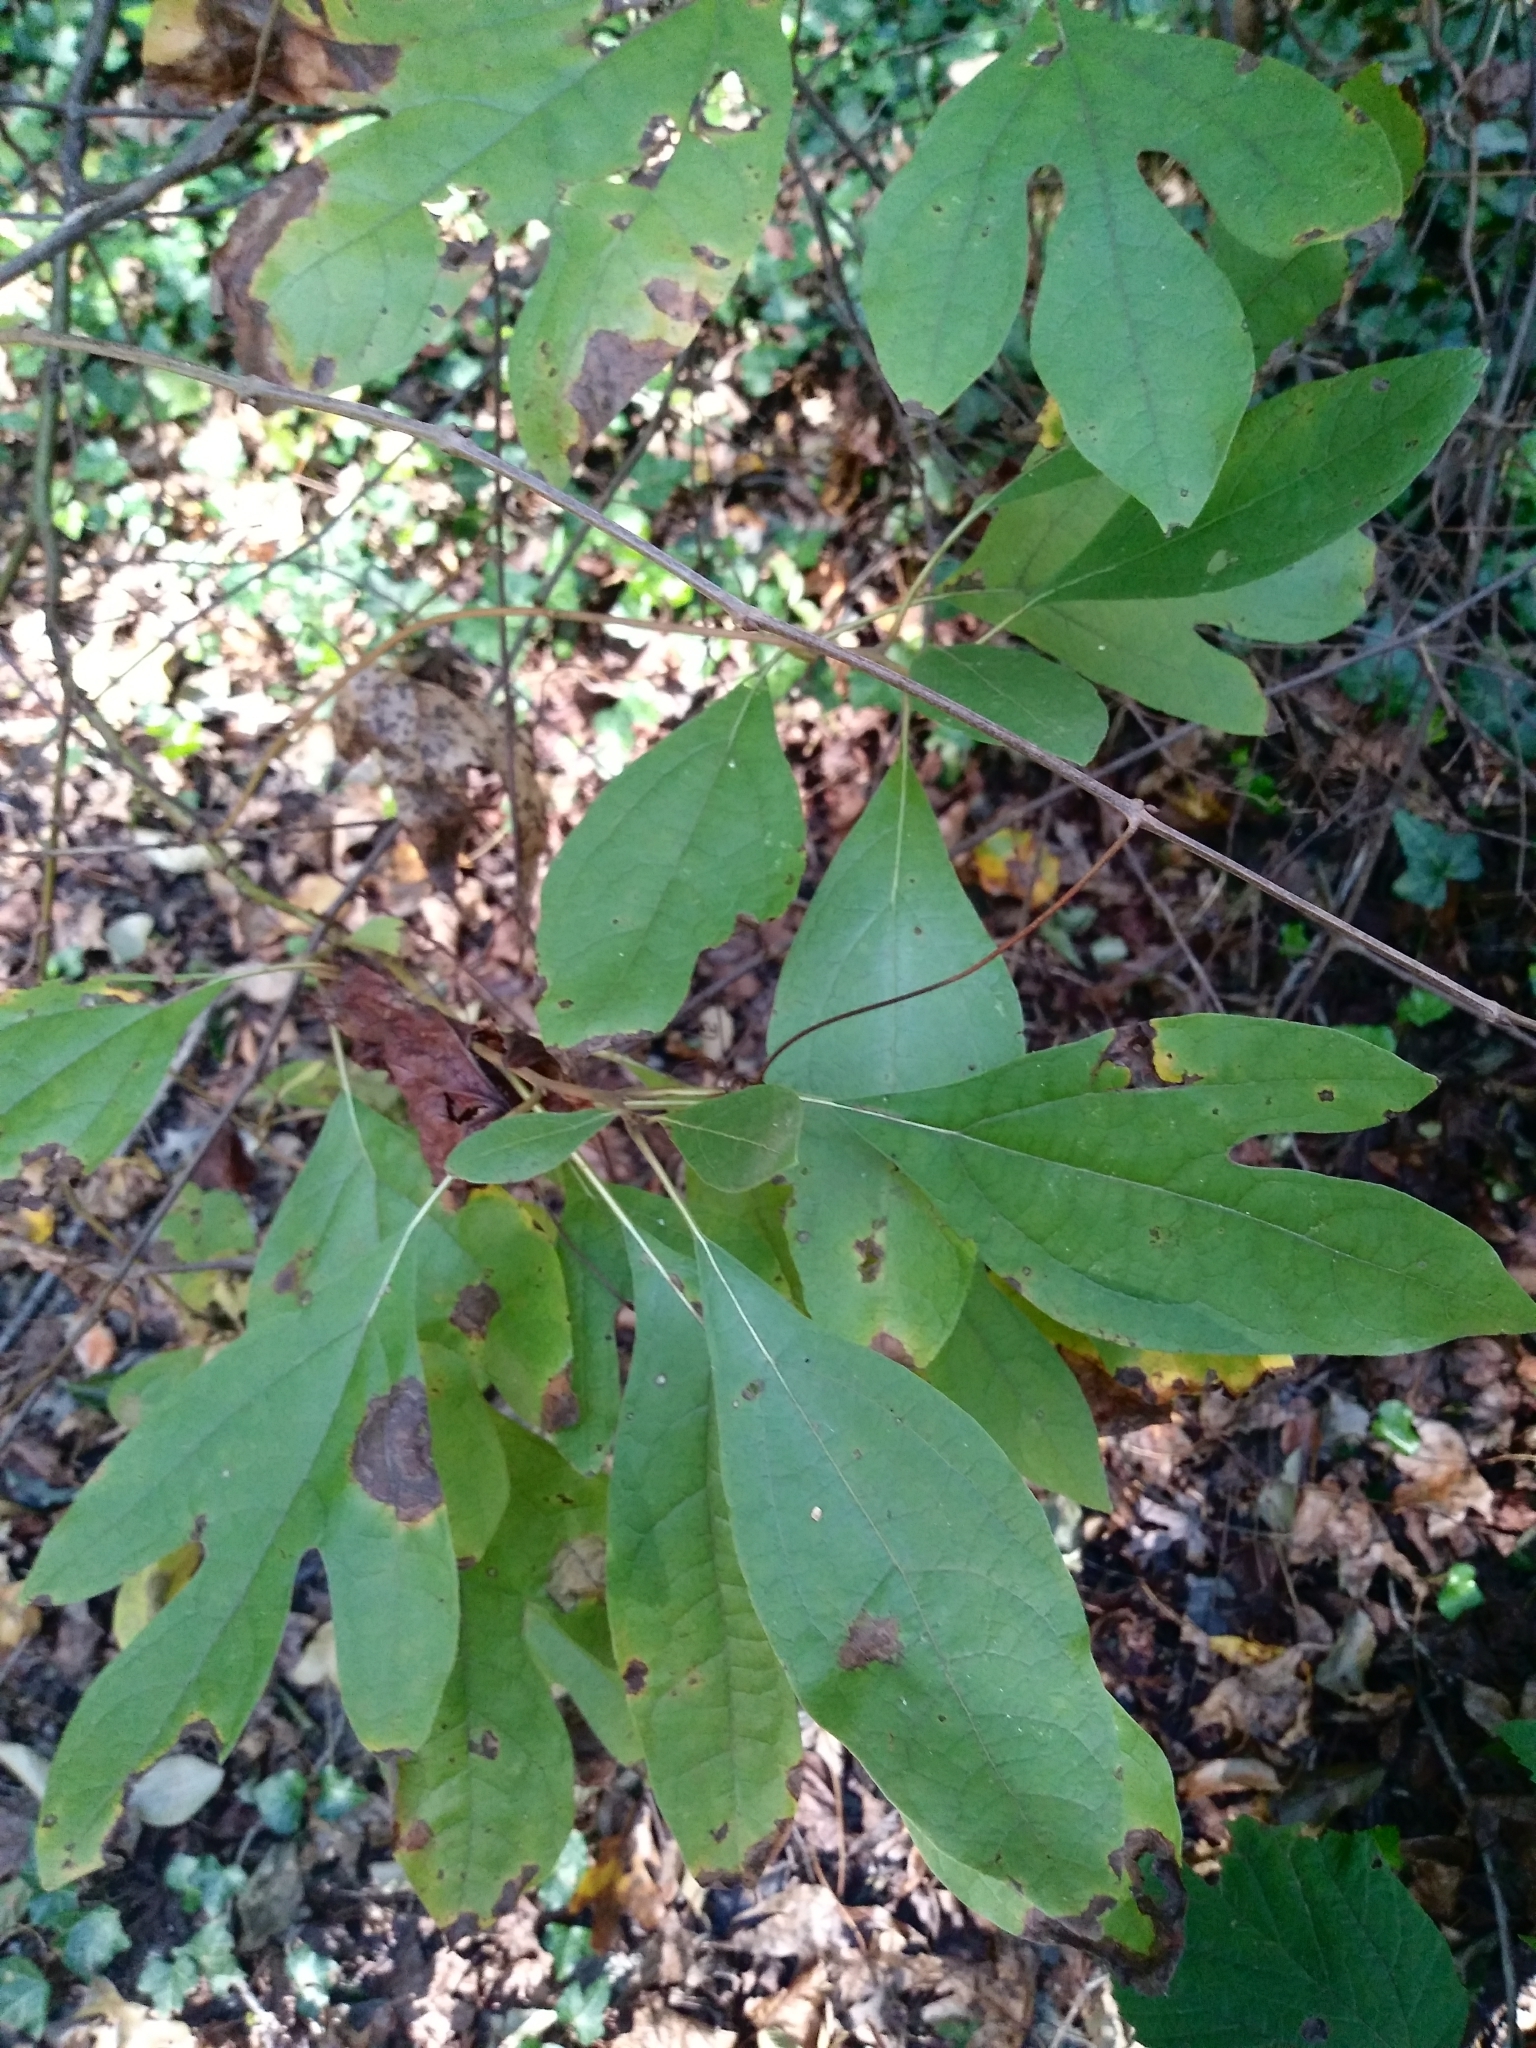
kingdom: Plantae
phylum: Tracheophyta
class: Magnoliopsida
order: Laurales
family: Lauraceae
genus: Sassafras
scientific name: Sassafras albidum
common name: Sassafras
